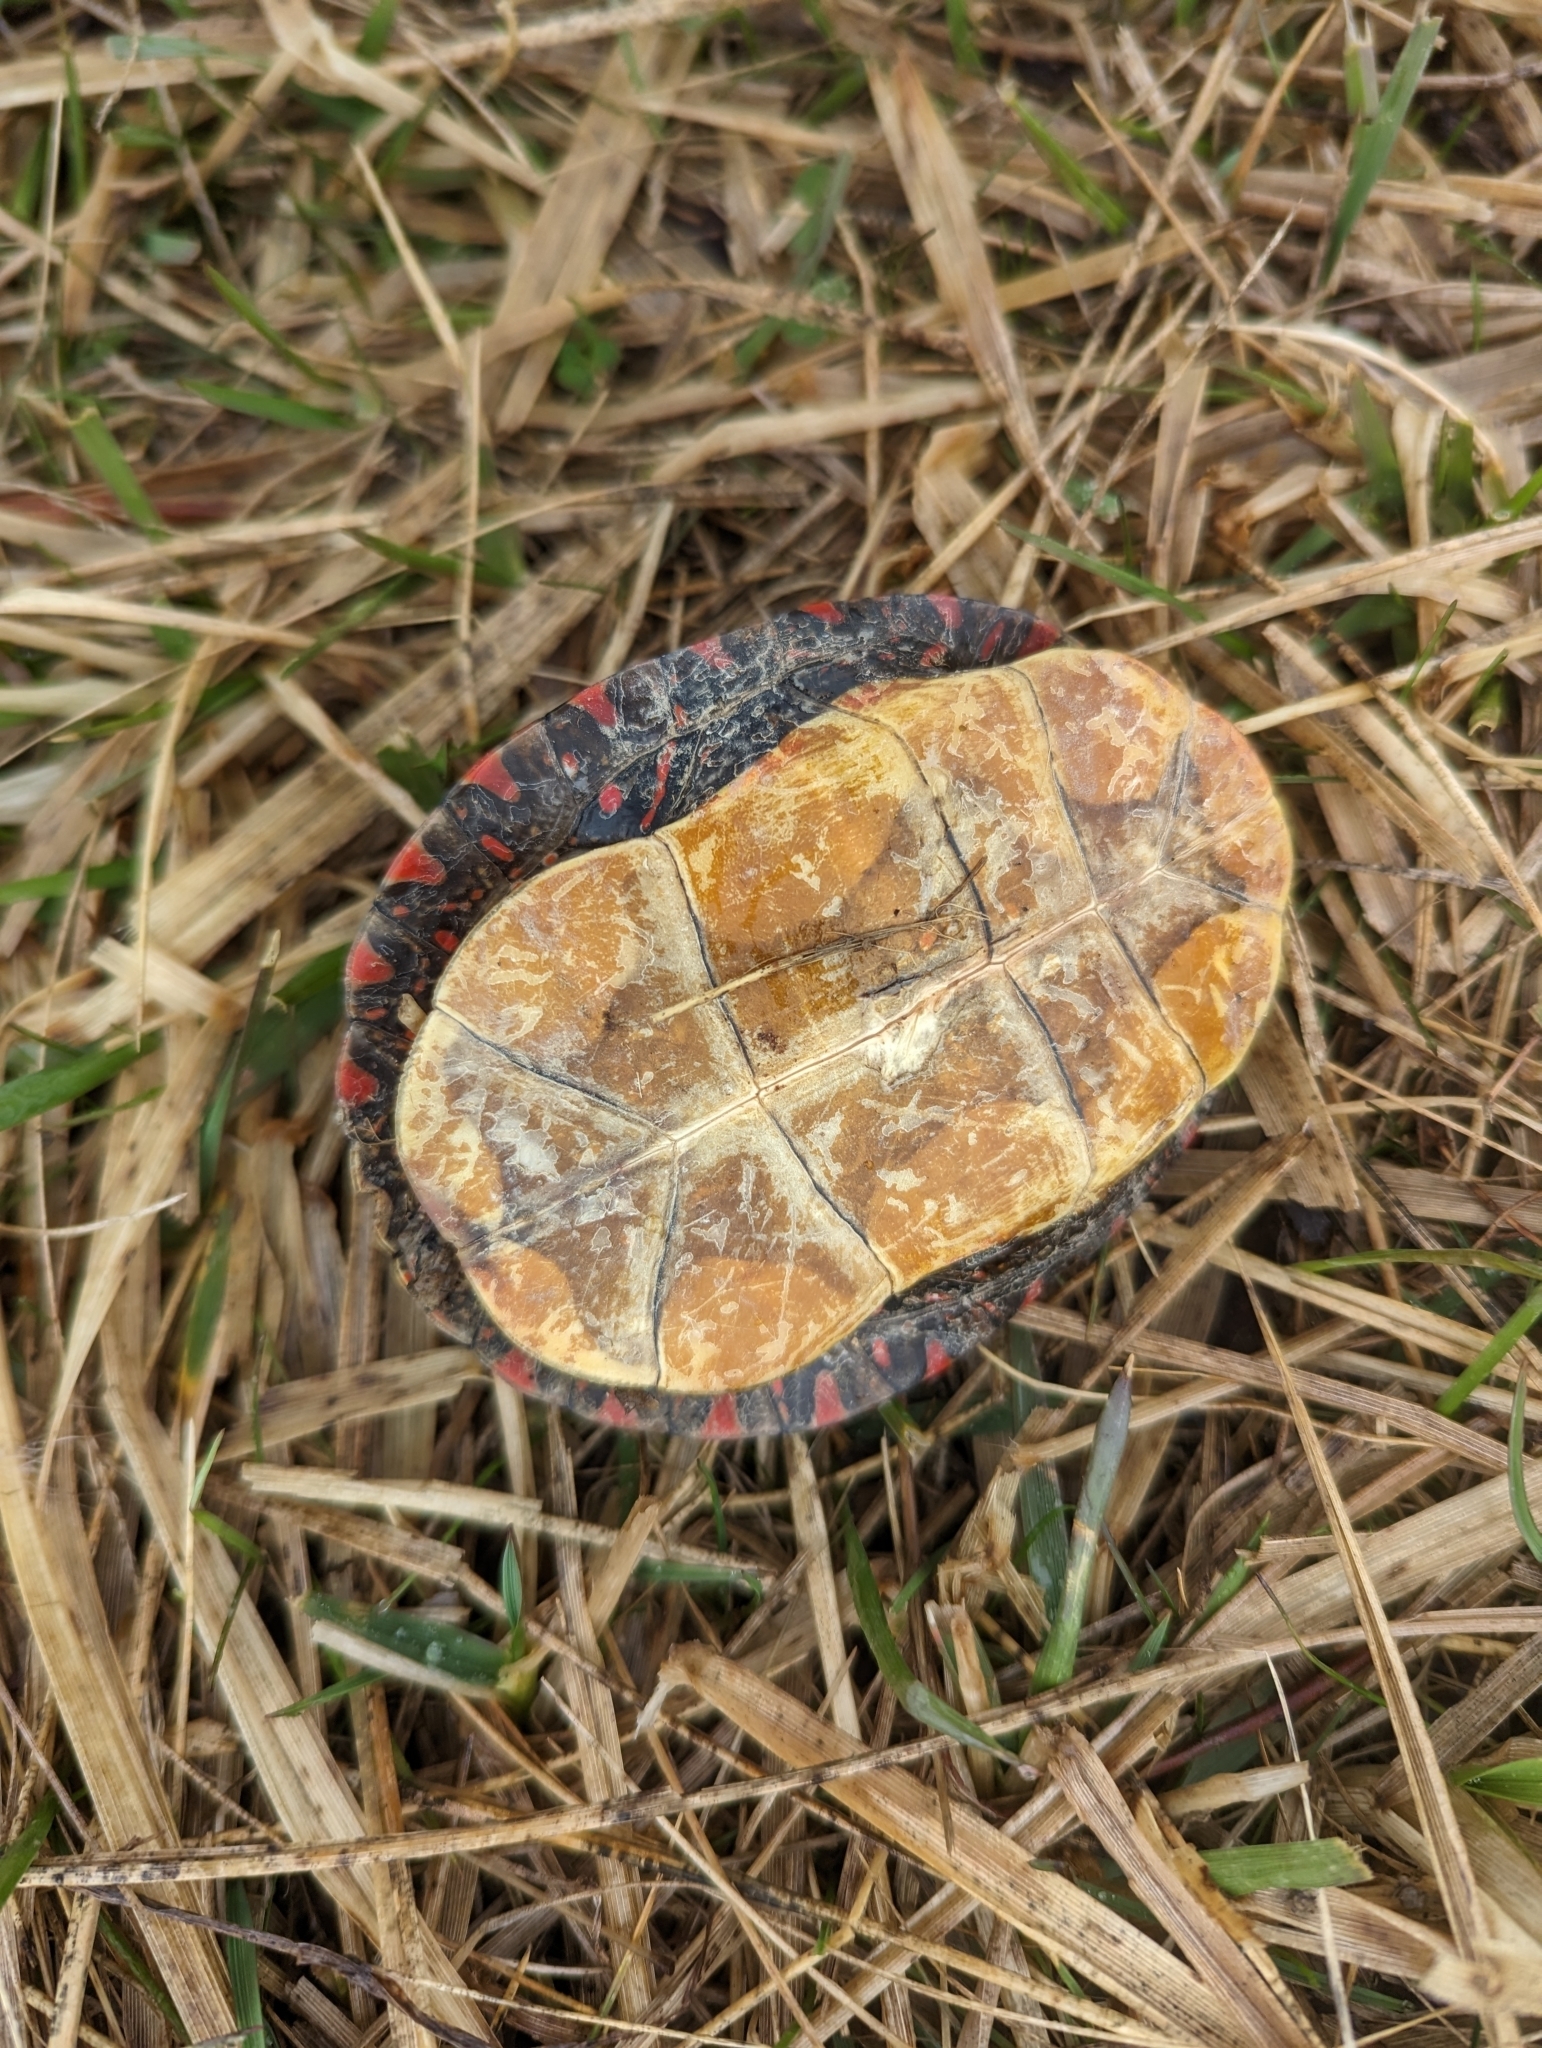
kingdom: Animalia
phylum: Chordata
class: Testudines
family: Emydidae
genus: Chrysemys
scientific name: Chrysemys picta
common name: Painted turtle
